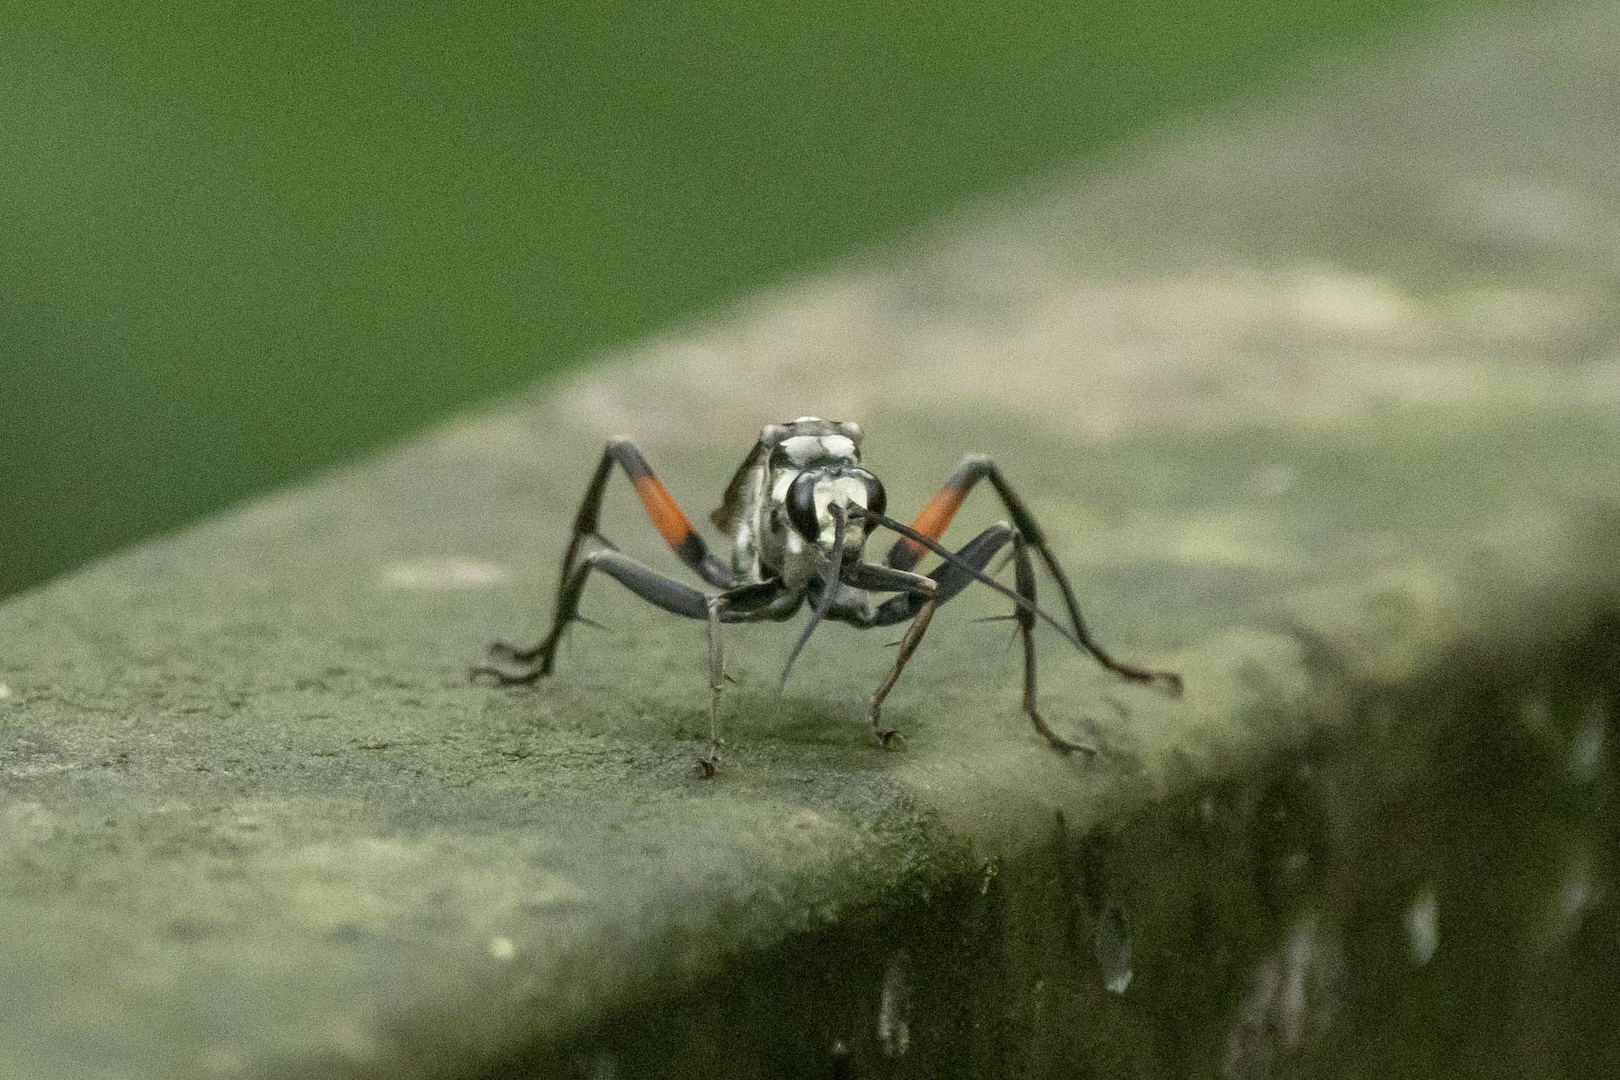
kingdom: Animalia
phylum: Arthropoda
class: Insecta
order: Hymenoptera
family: Pompilidae
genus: Paragenia
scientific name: Paragenia argentifrons
